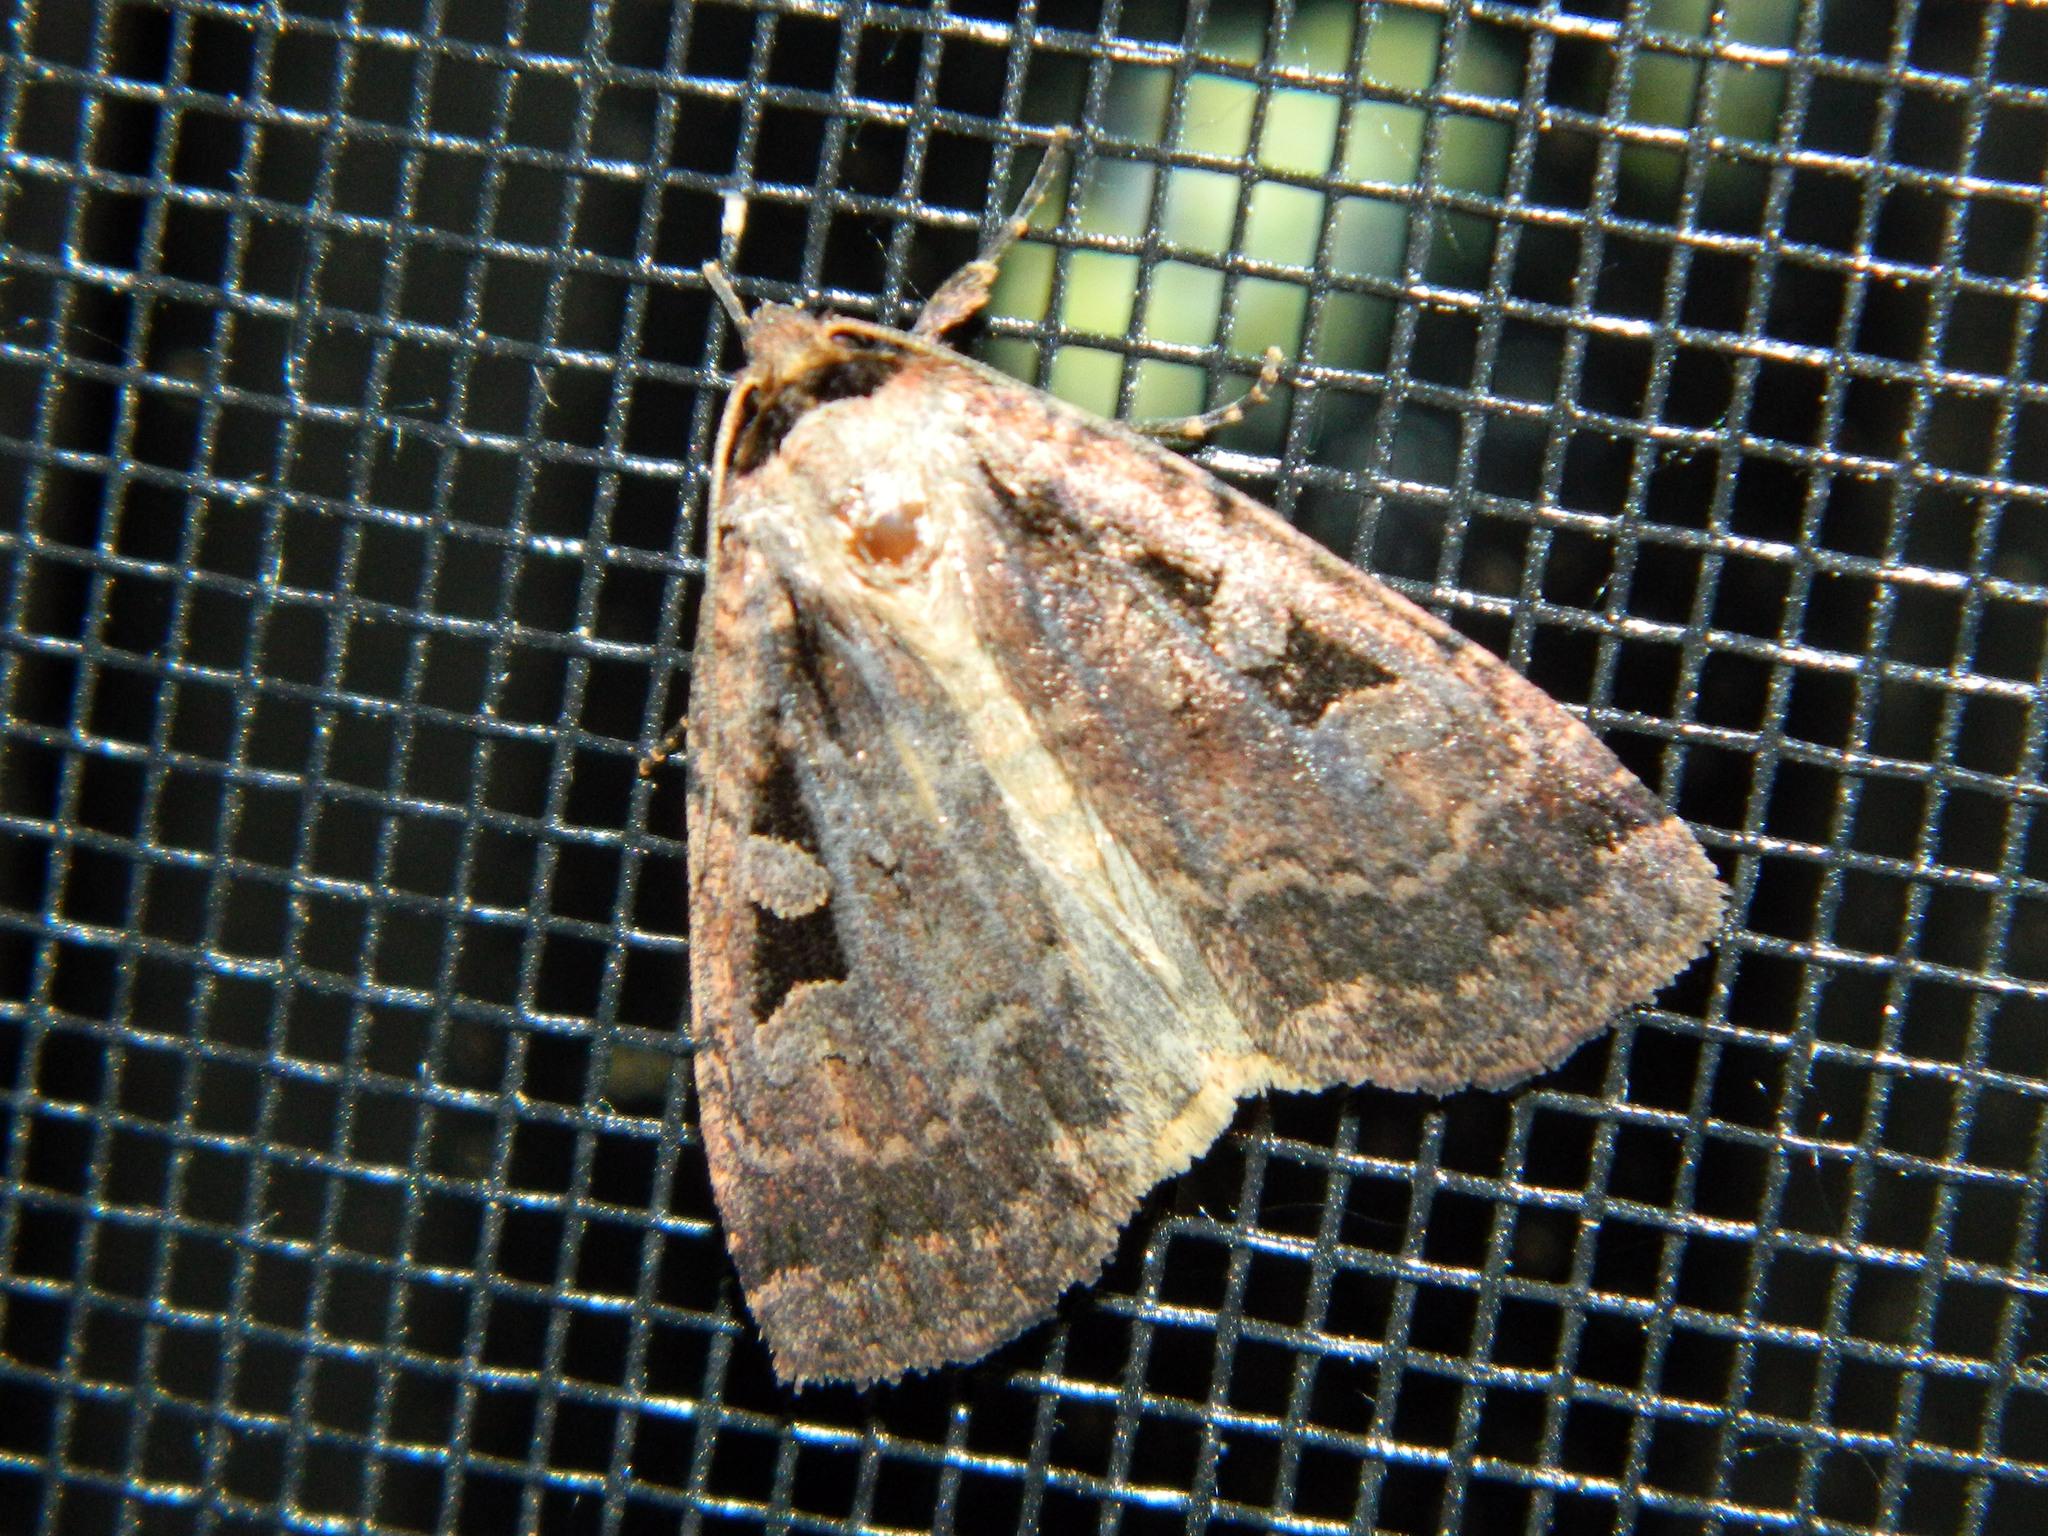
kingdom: Animalia
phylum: Arthropoda
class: Insecta
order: Lepidoptera
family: Noctuidae
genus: Eueretagrotis
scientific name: Eueretagrotis perattentus
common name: Two-spot dart moth
